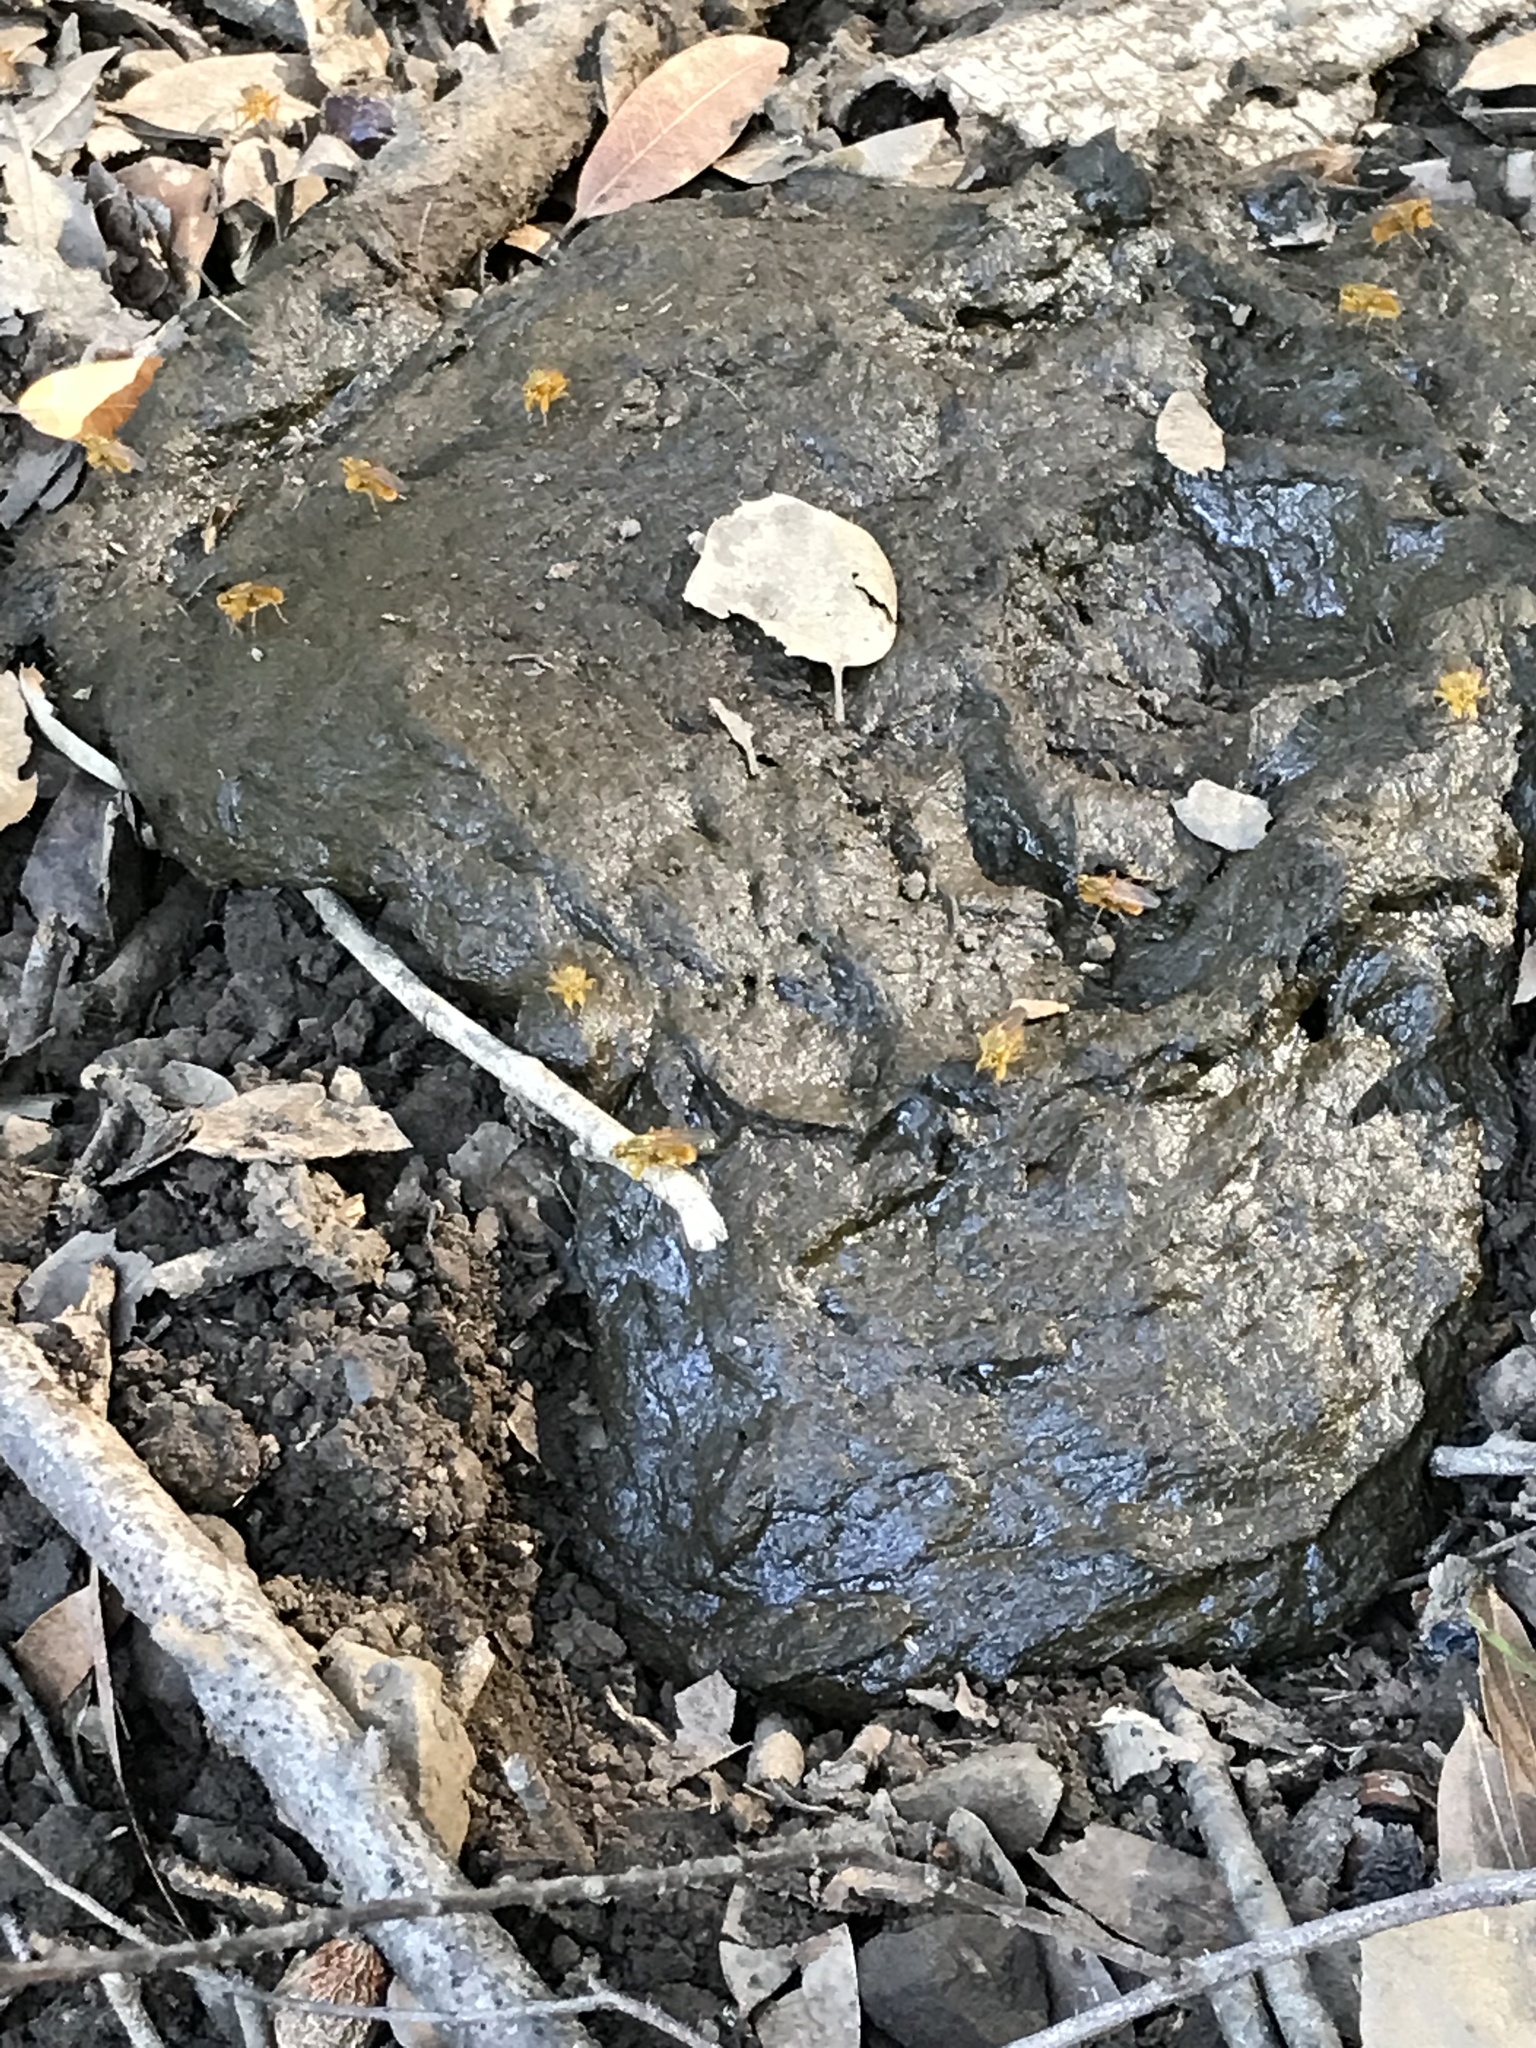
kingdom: Animalia
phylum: Arthropoda
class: Insecta
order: Diptera
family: Scathophagidae
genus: Scathophaga
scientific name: Scathophaga stercoraria
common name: Yellow dung fly
